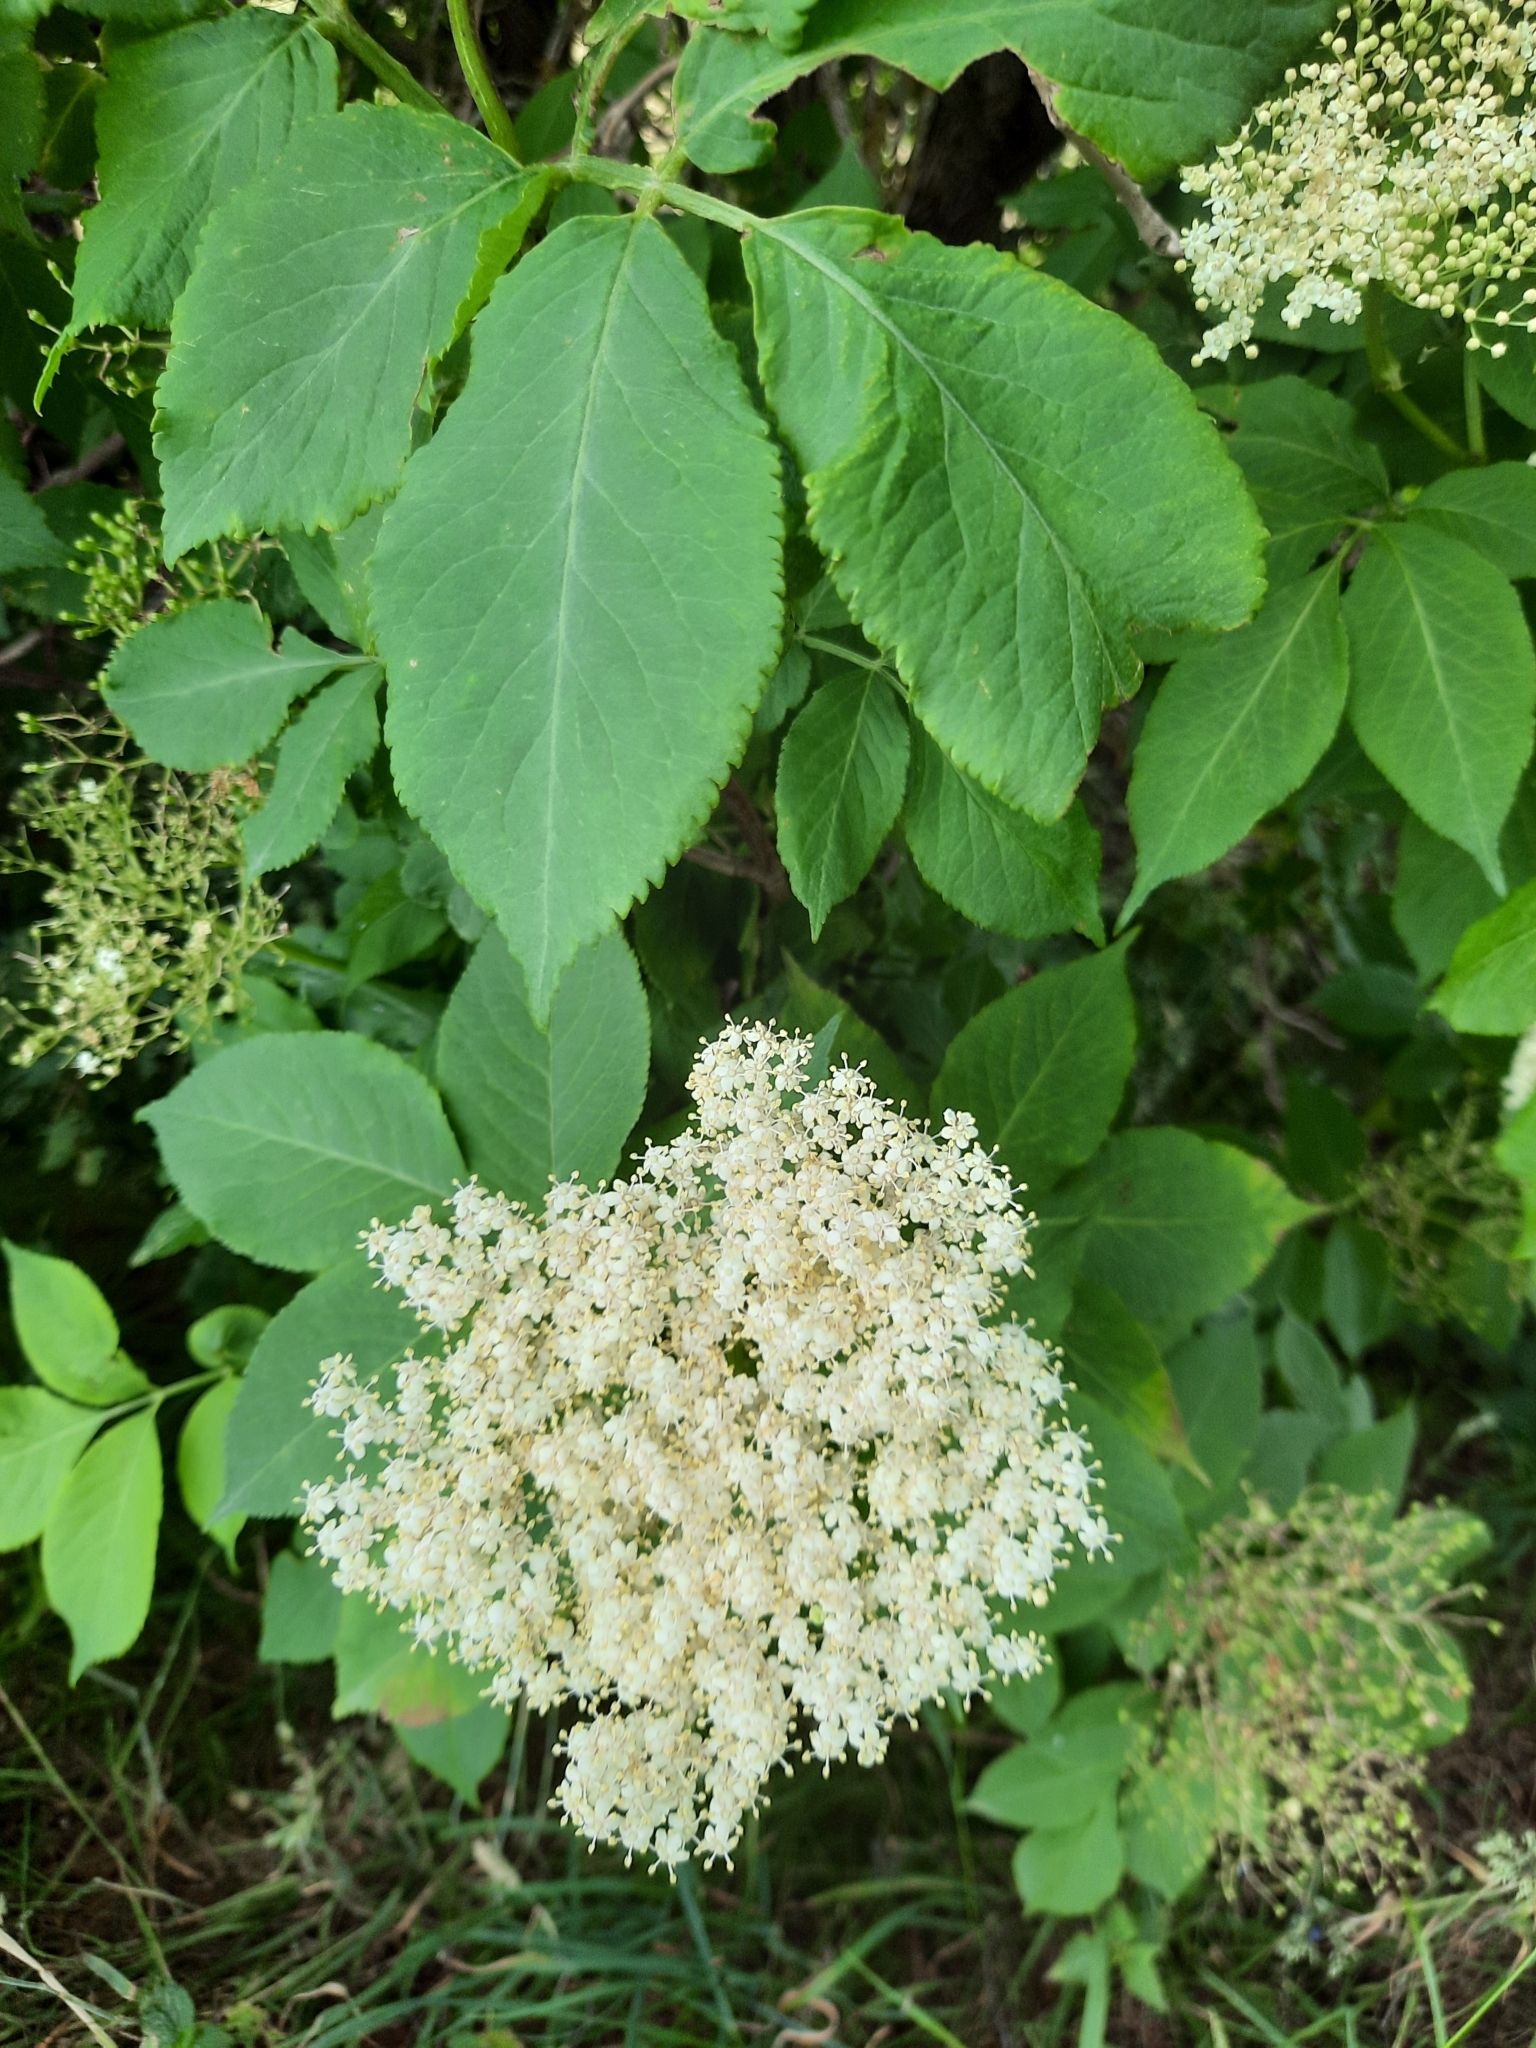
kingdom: Plantae
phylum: Tracheophyta
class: Magnoliopsida
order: Dipsacales
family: Viburnaceae
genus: Sambucus
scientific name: Sambucus nigra
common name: Elder
